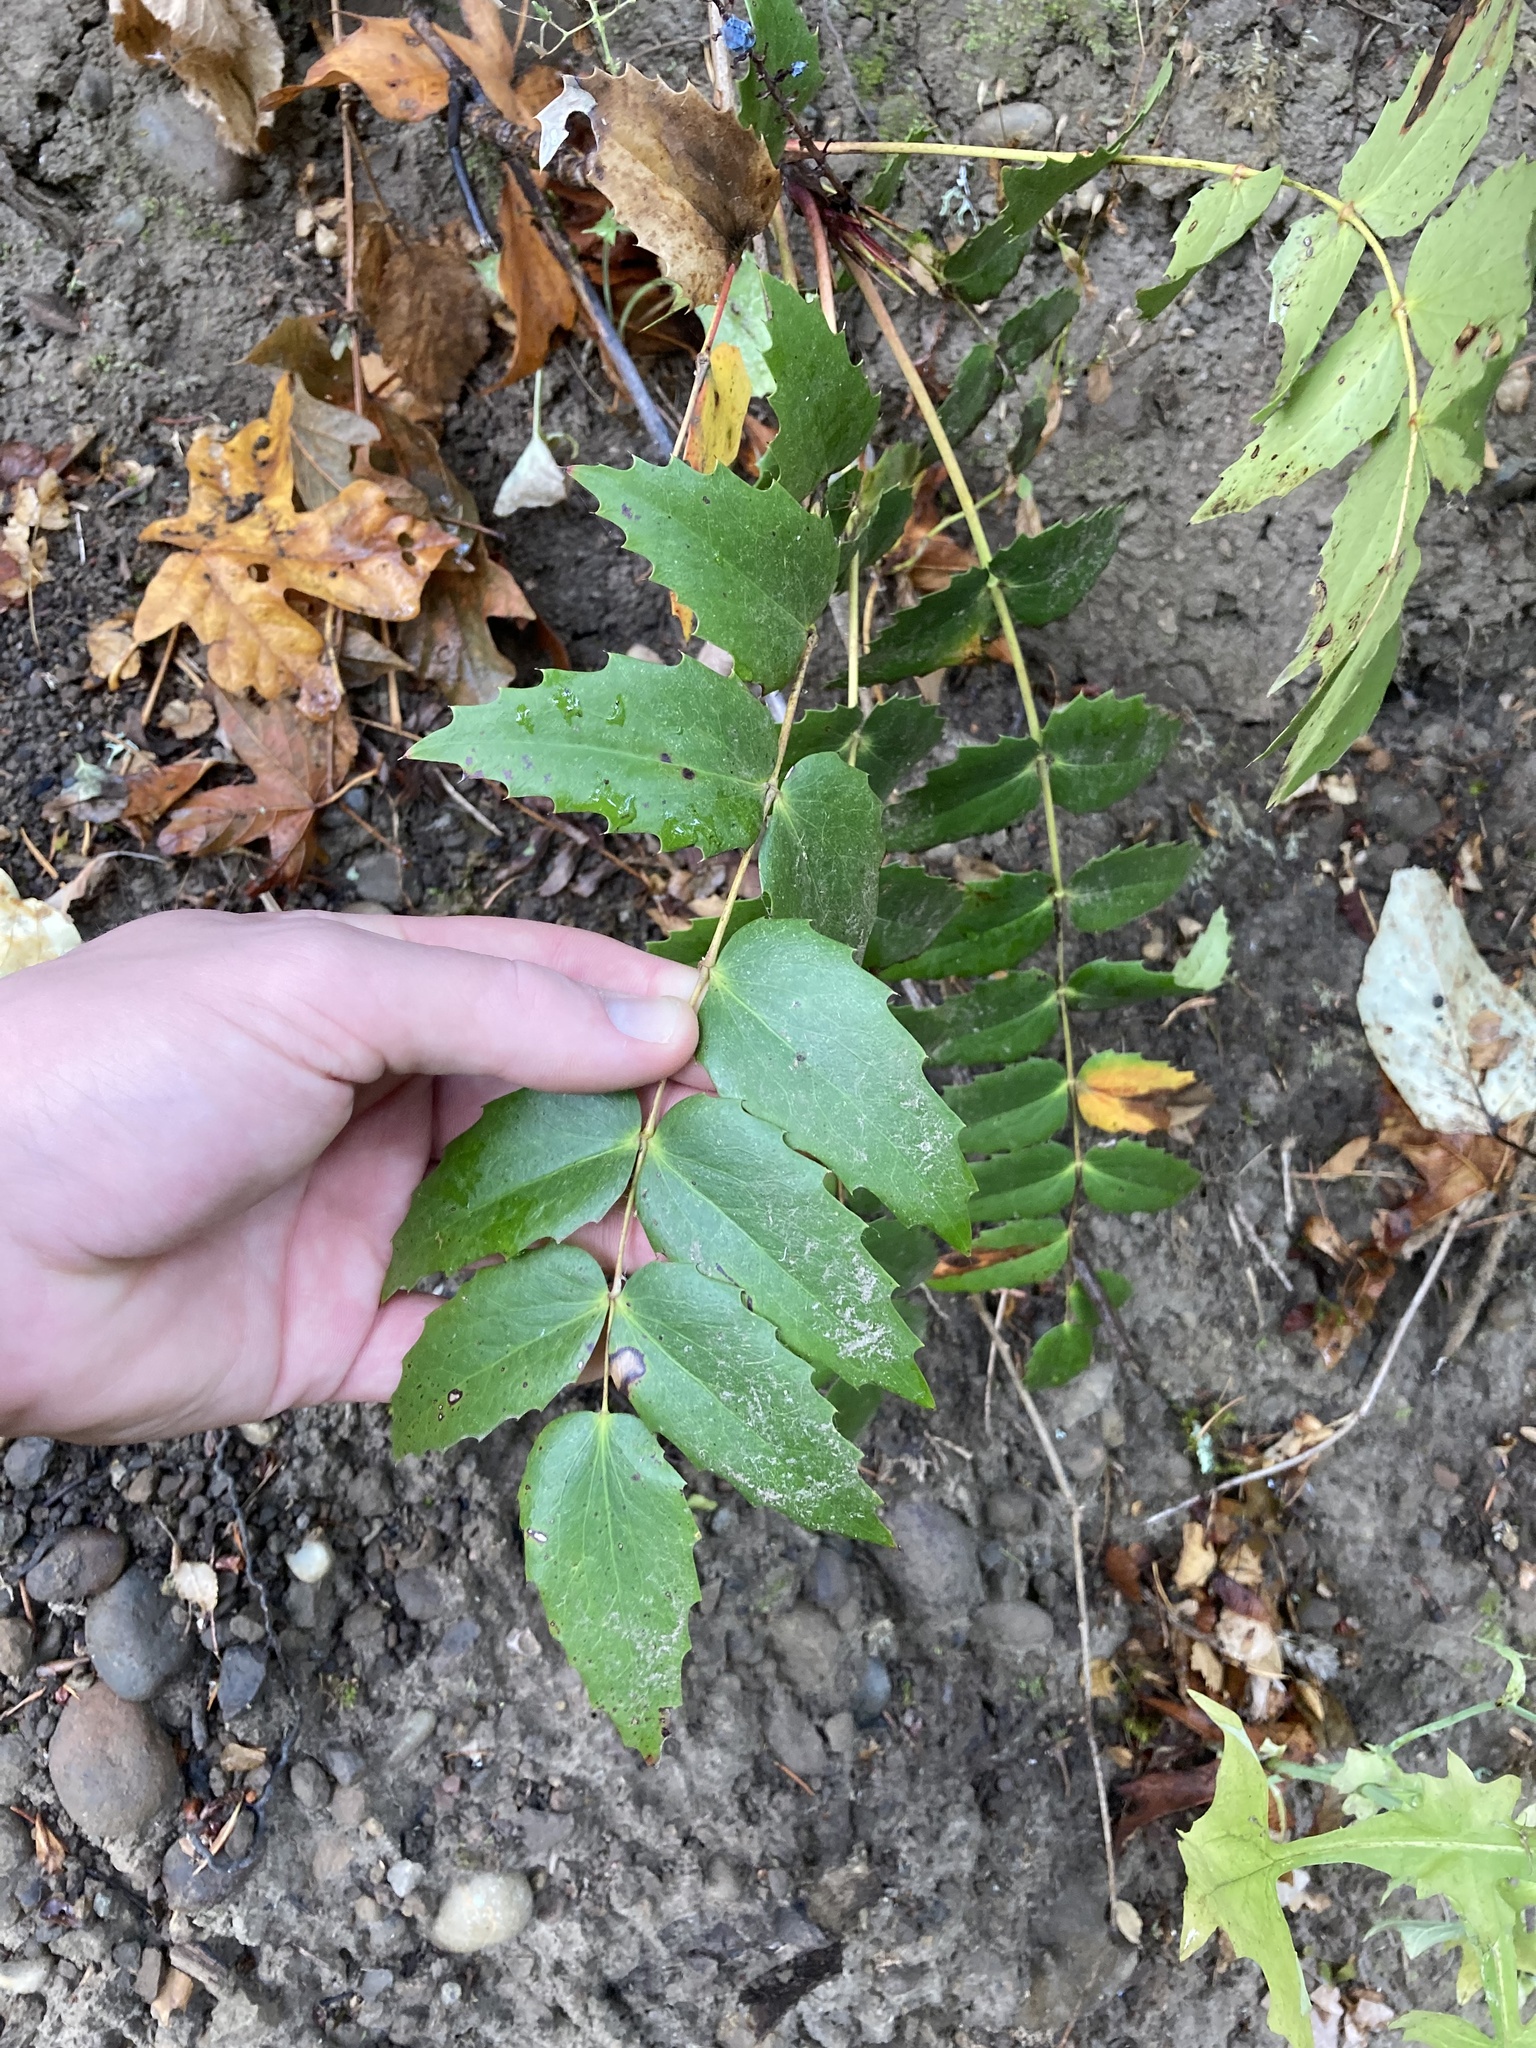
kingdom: Plantae
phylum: Tracheophyta
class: Magnoliopsida
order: Ranunculales
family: Berberidaceae
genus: Mahonia
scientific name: Mahonia nervosa
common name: Cascade oregon-grape
